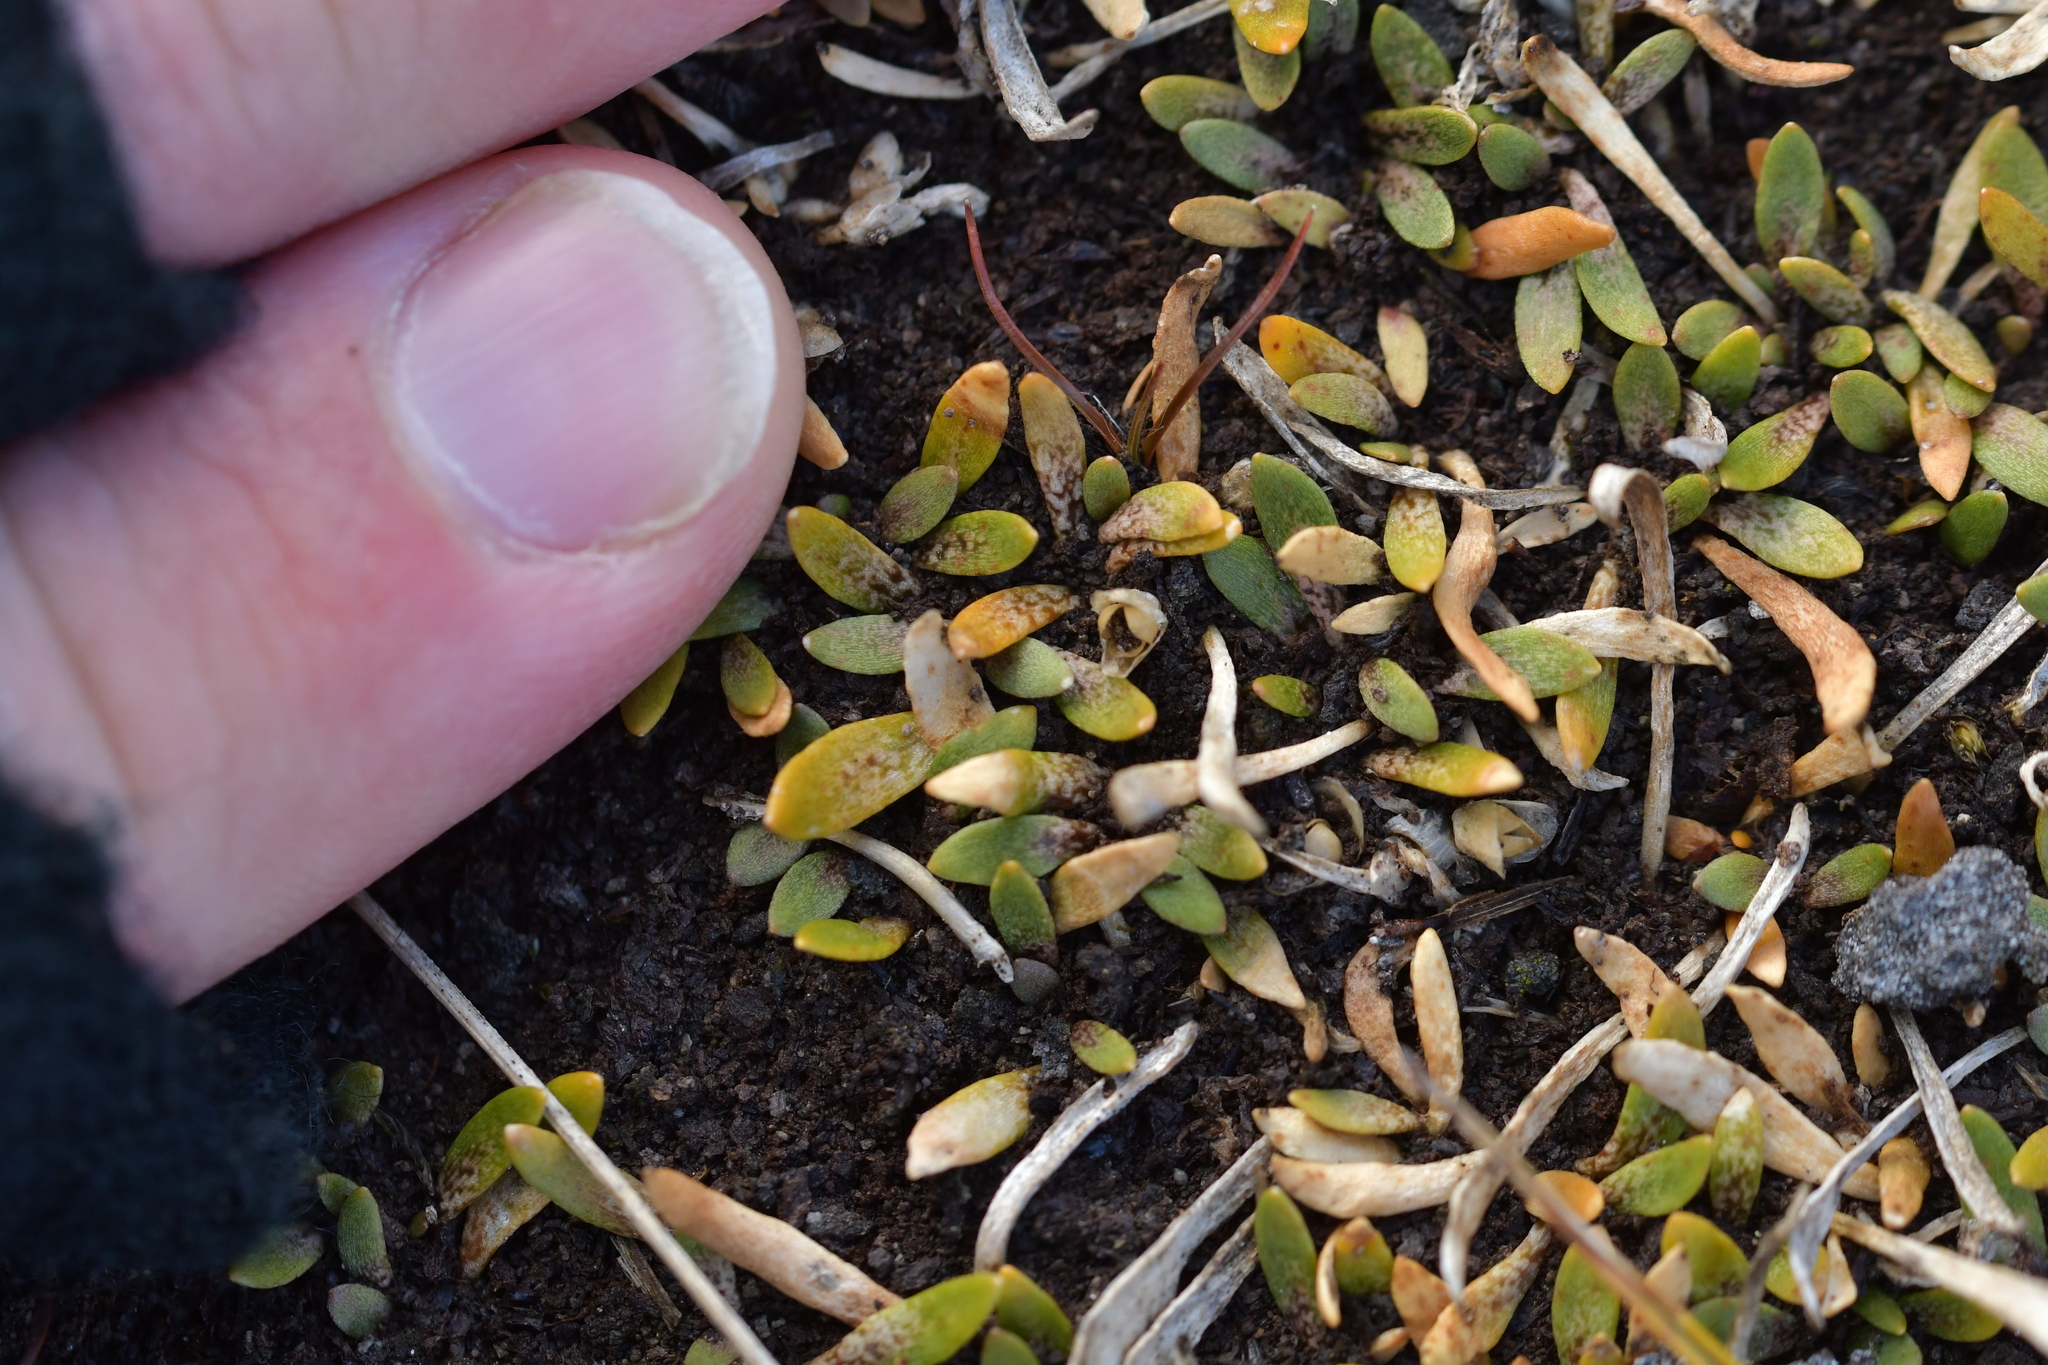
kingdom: Plantae
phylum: Tracheophyta
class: Magnoliopsida
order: Caryophyllales
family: Montiaceae
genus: Montia
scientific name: Montia sessiliflora
